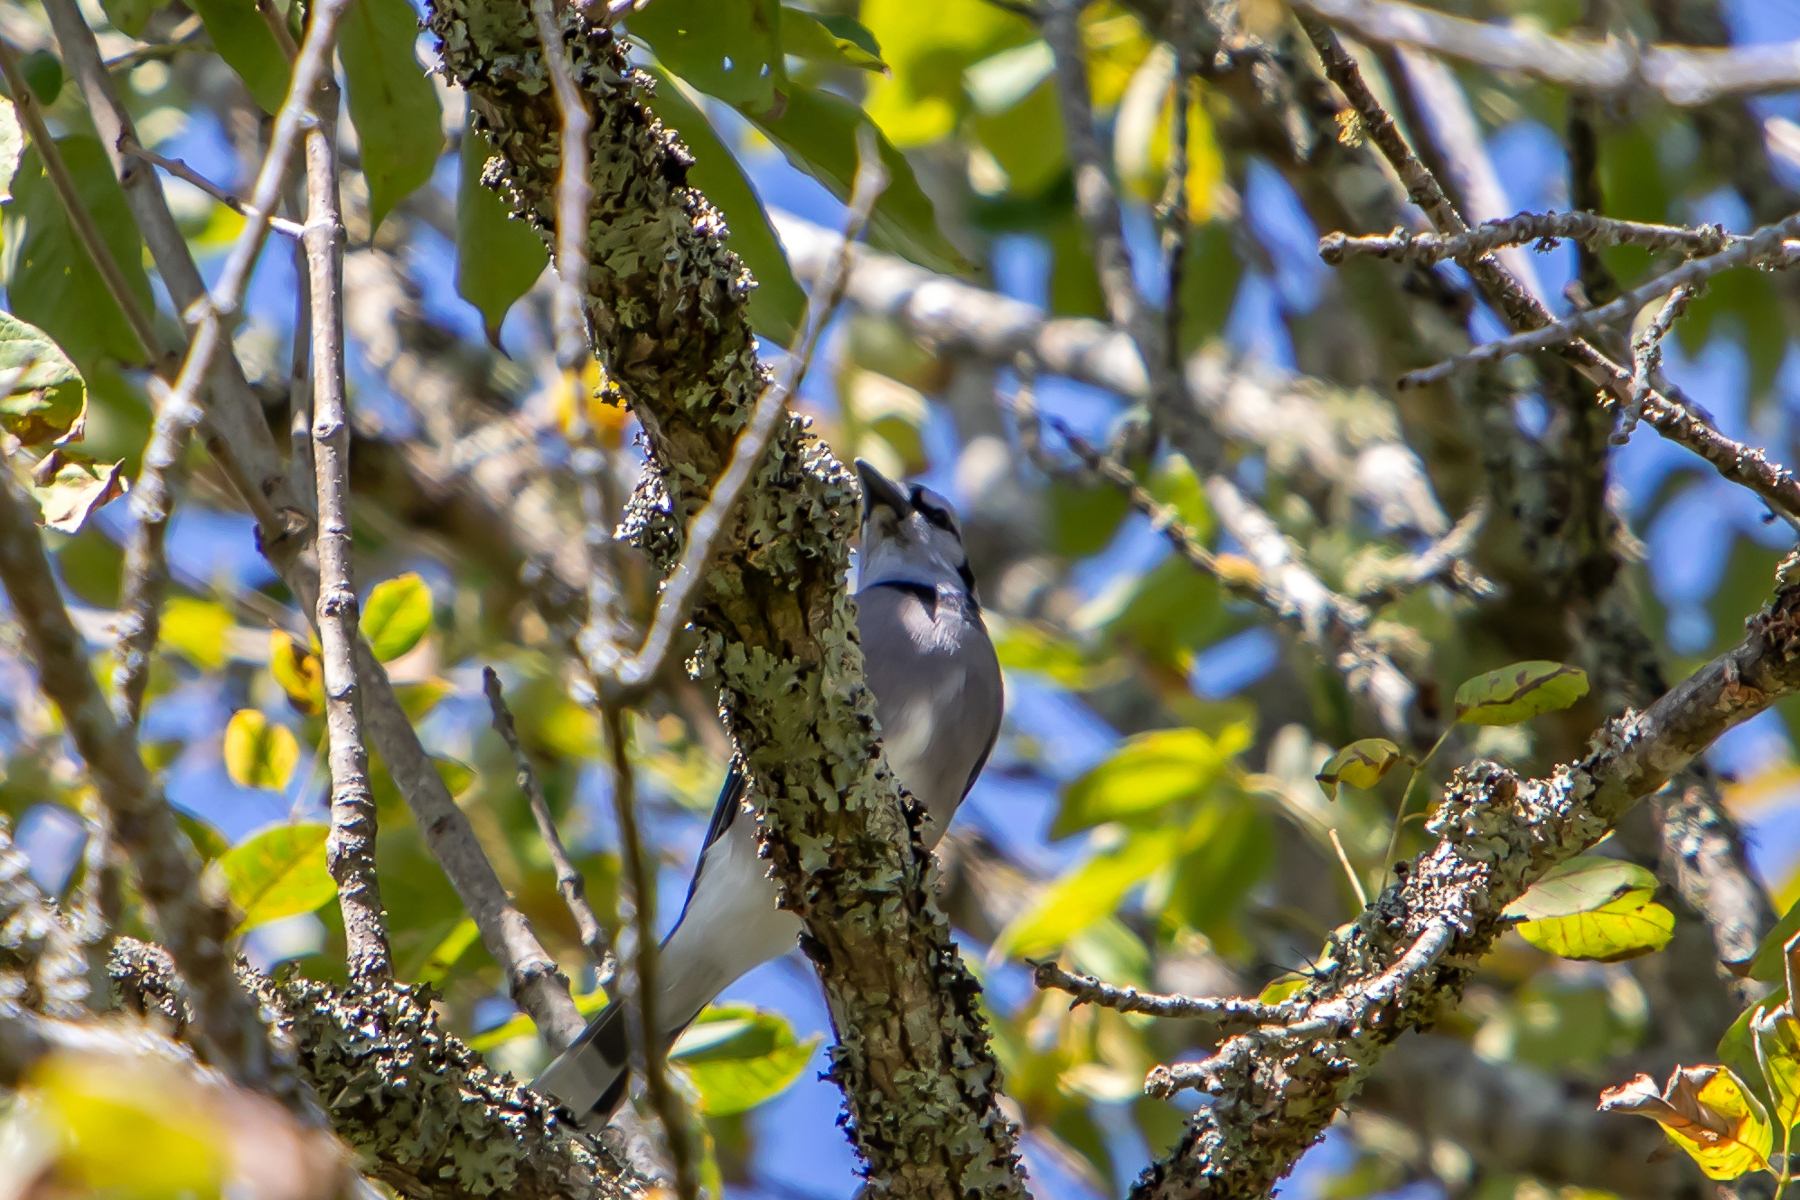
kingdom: Animalia
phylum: Chordata
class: Aves
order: Passeriformes
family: Corvidae
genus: Cyanocitta
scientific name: Cyanocitta cristata
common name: Blue jay
